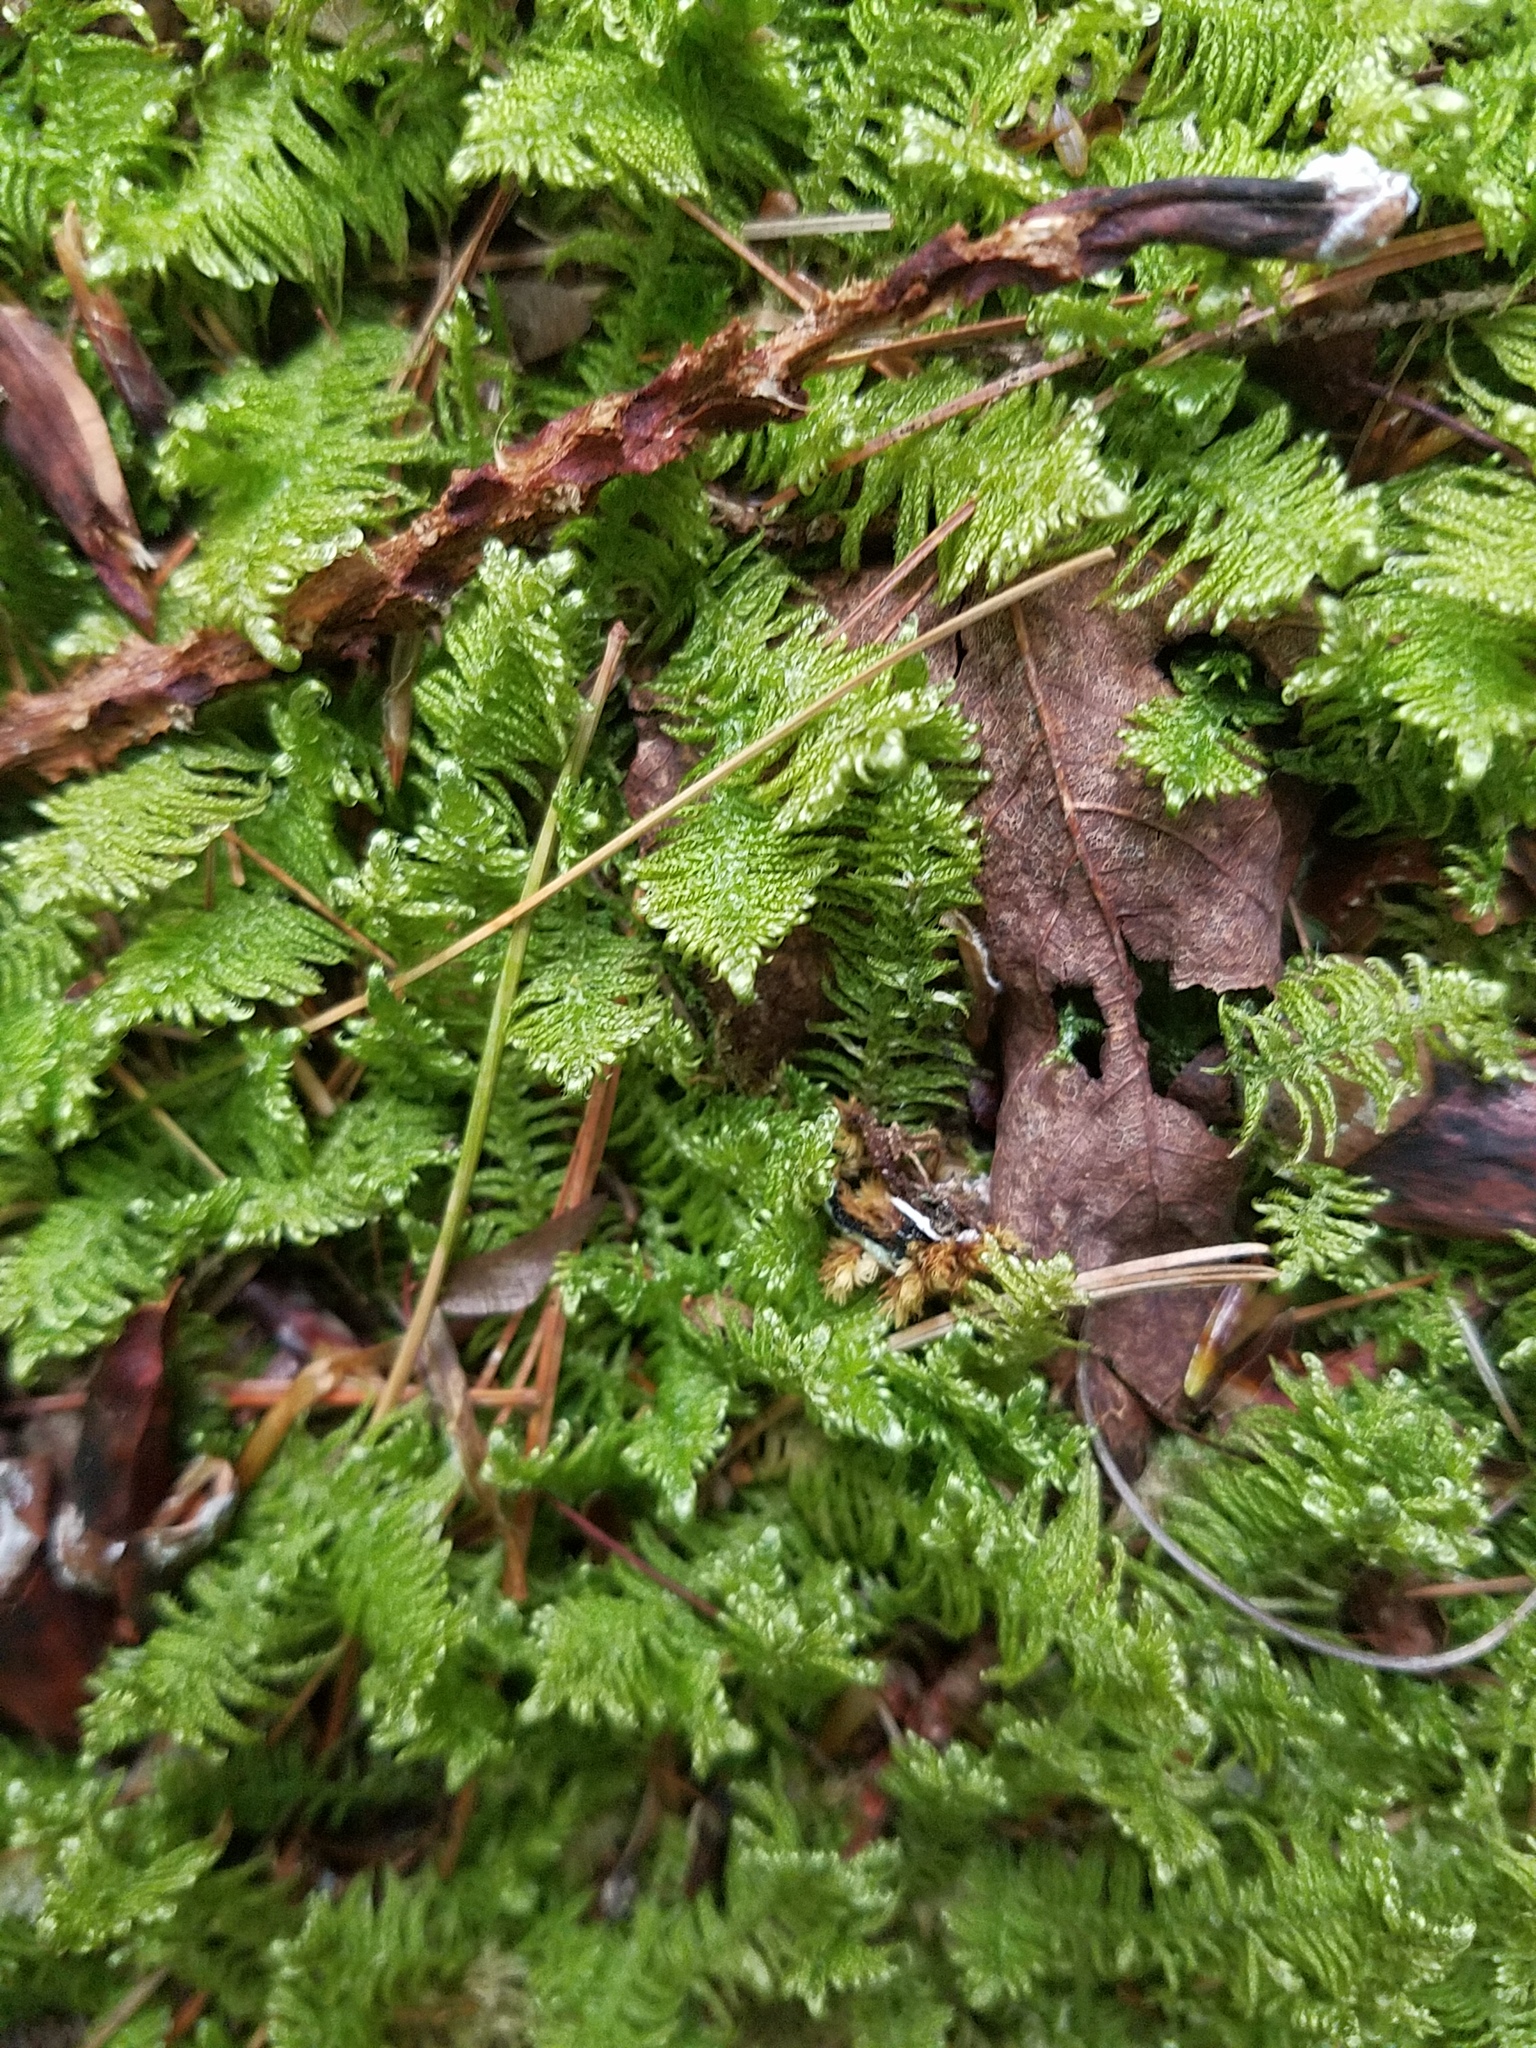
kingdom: Plantae
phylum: Bryophyta
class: Bryopsida
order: Hypnales
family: Pylaisiaceae
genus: Ptilium
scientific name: Ptilium crista-castrensis
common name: Knight's plume moss
